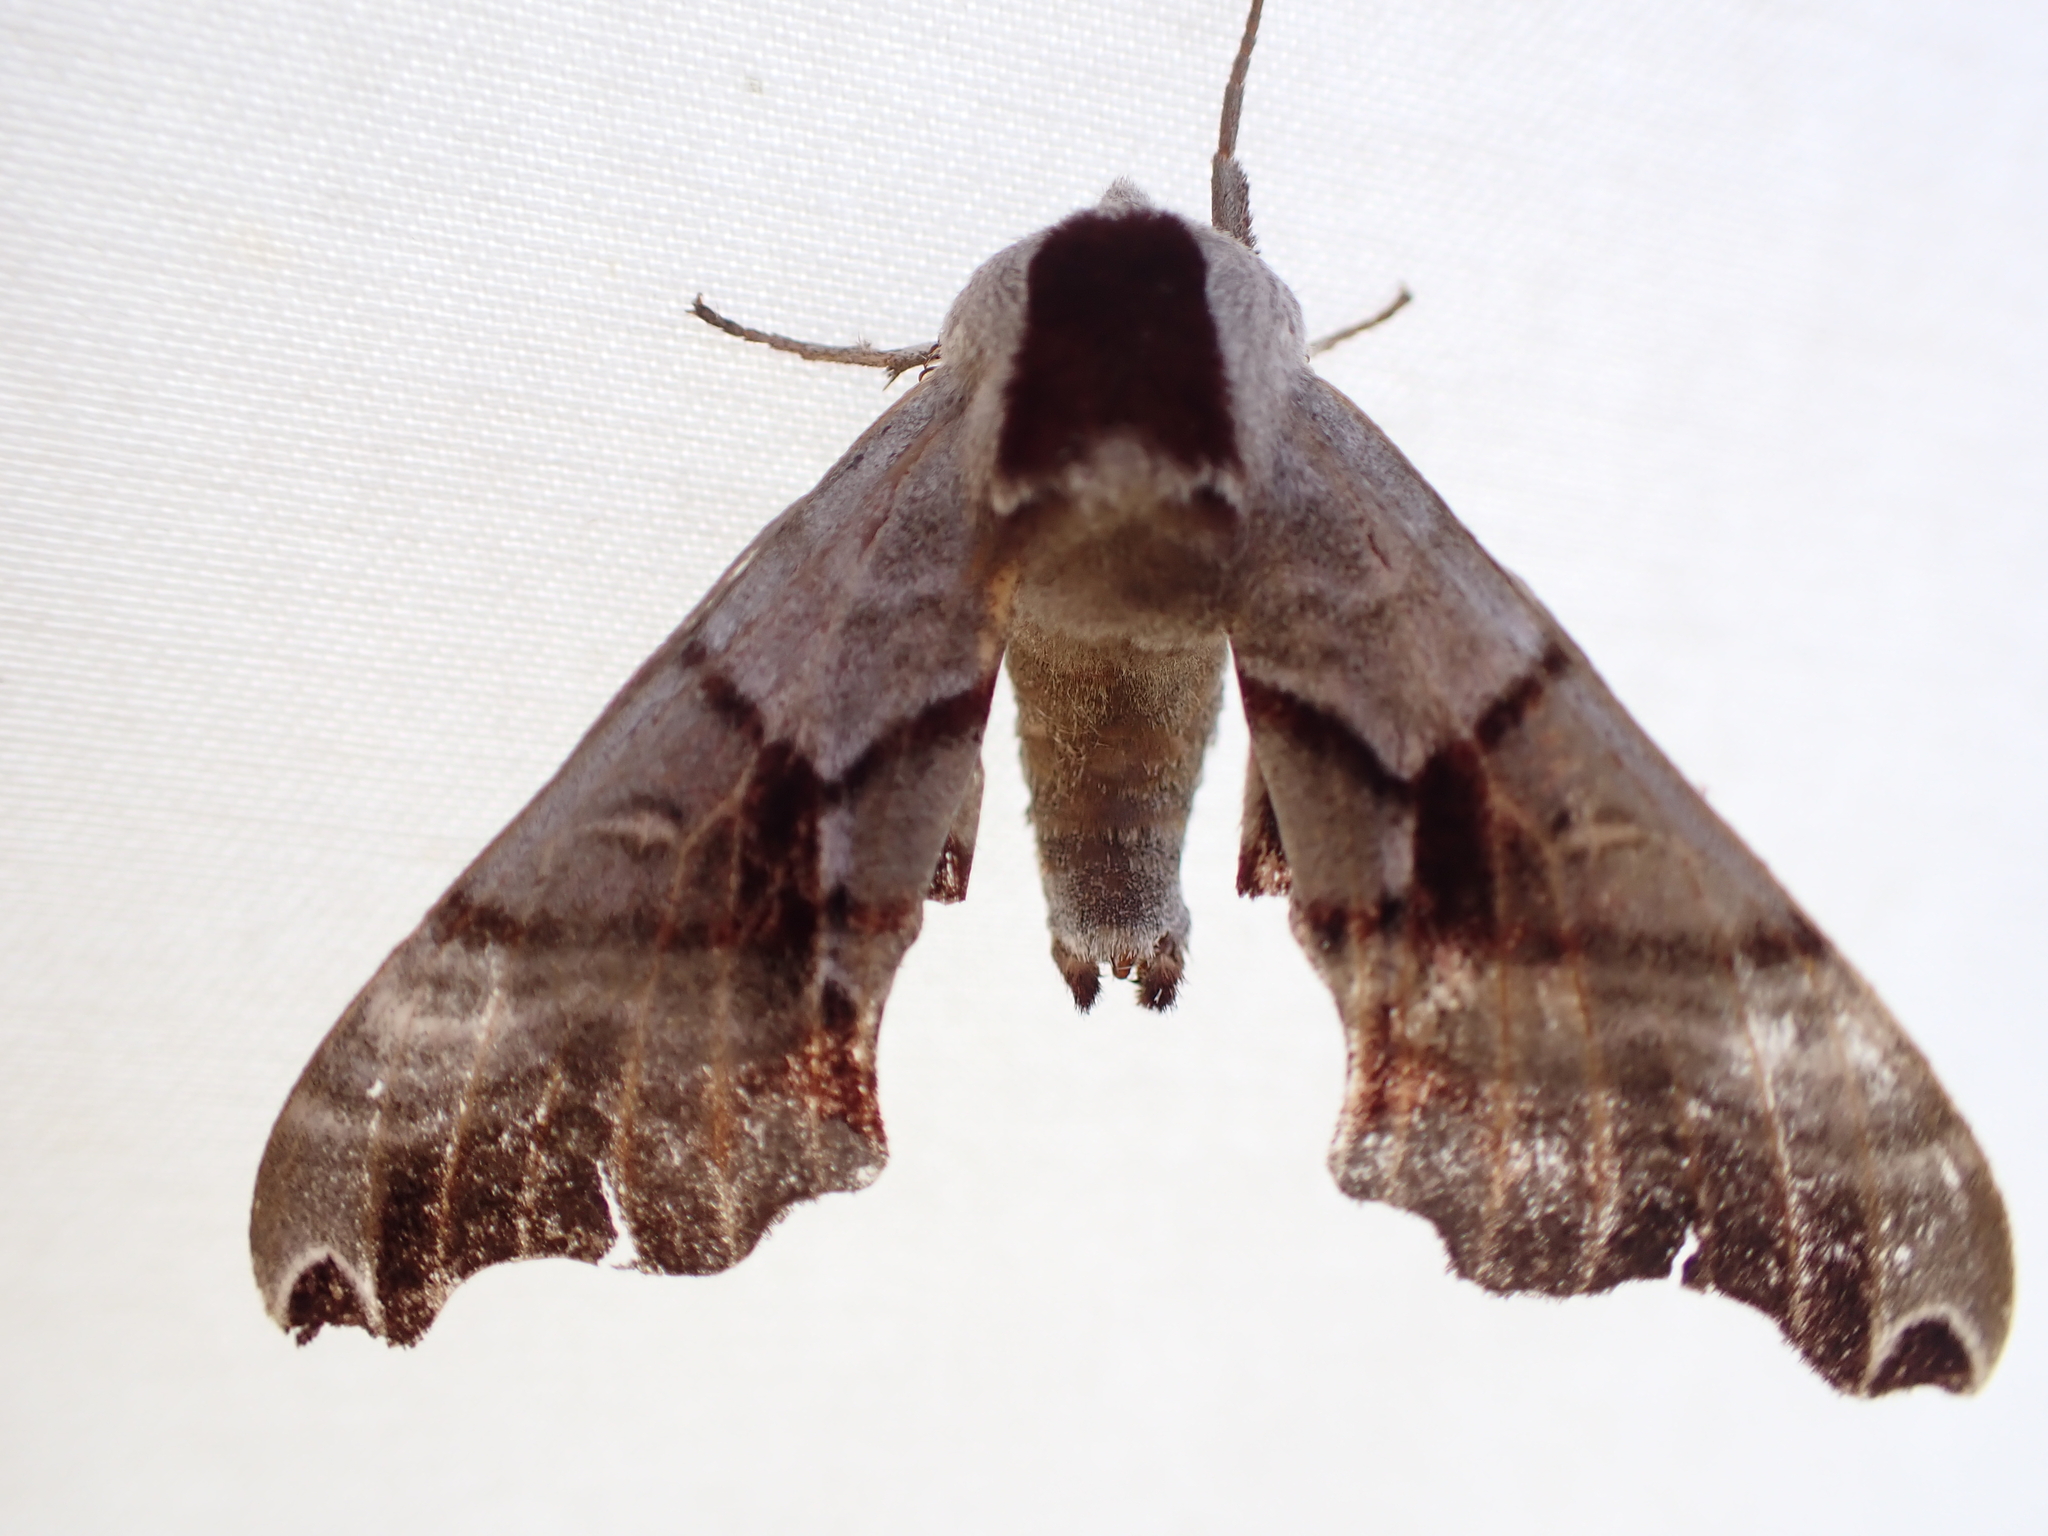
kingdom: Animalia
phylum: Arthropoda
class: Insecta
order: Lepidoptera
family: Sphingidae
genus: Smerinthus
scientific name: Smerinthus jamaicensis
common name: Twin spotted sphinx
